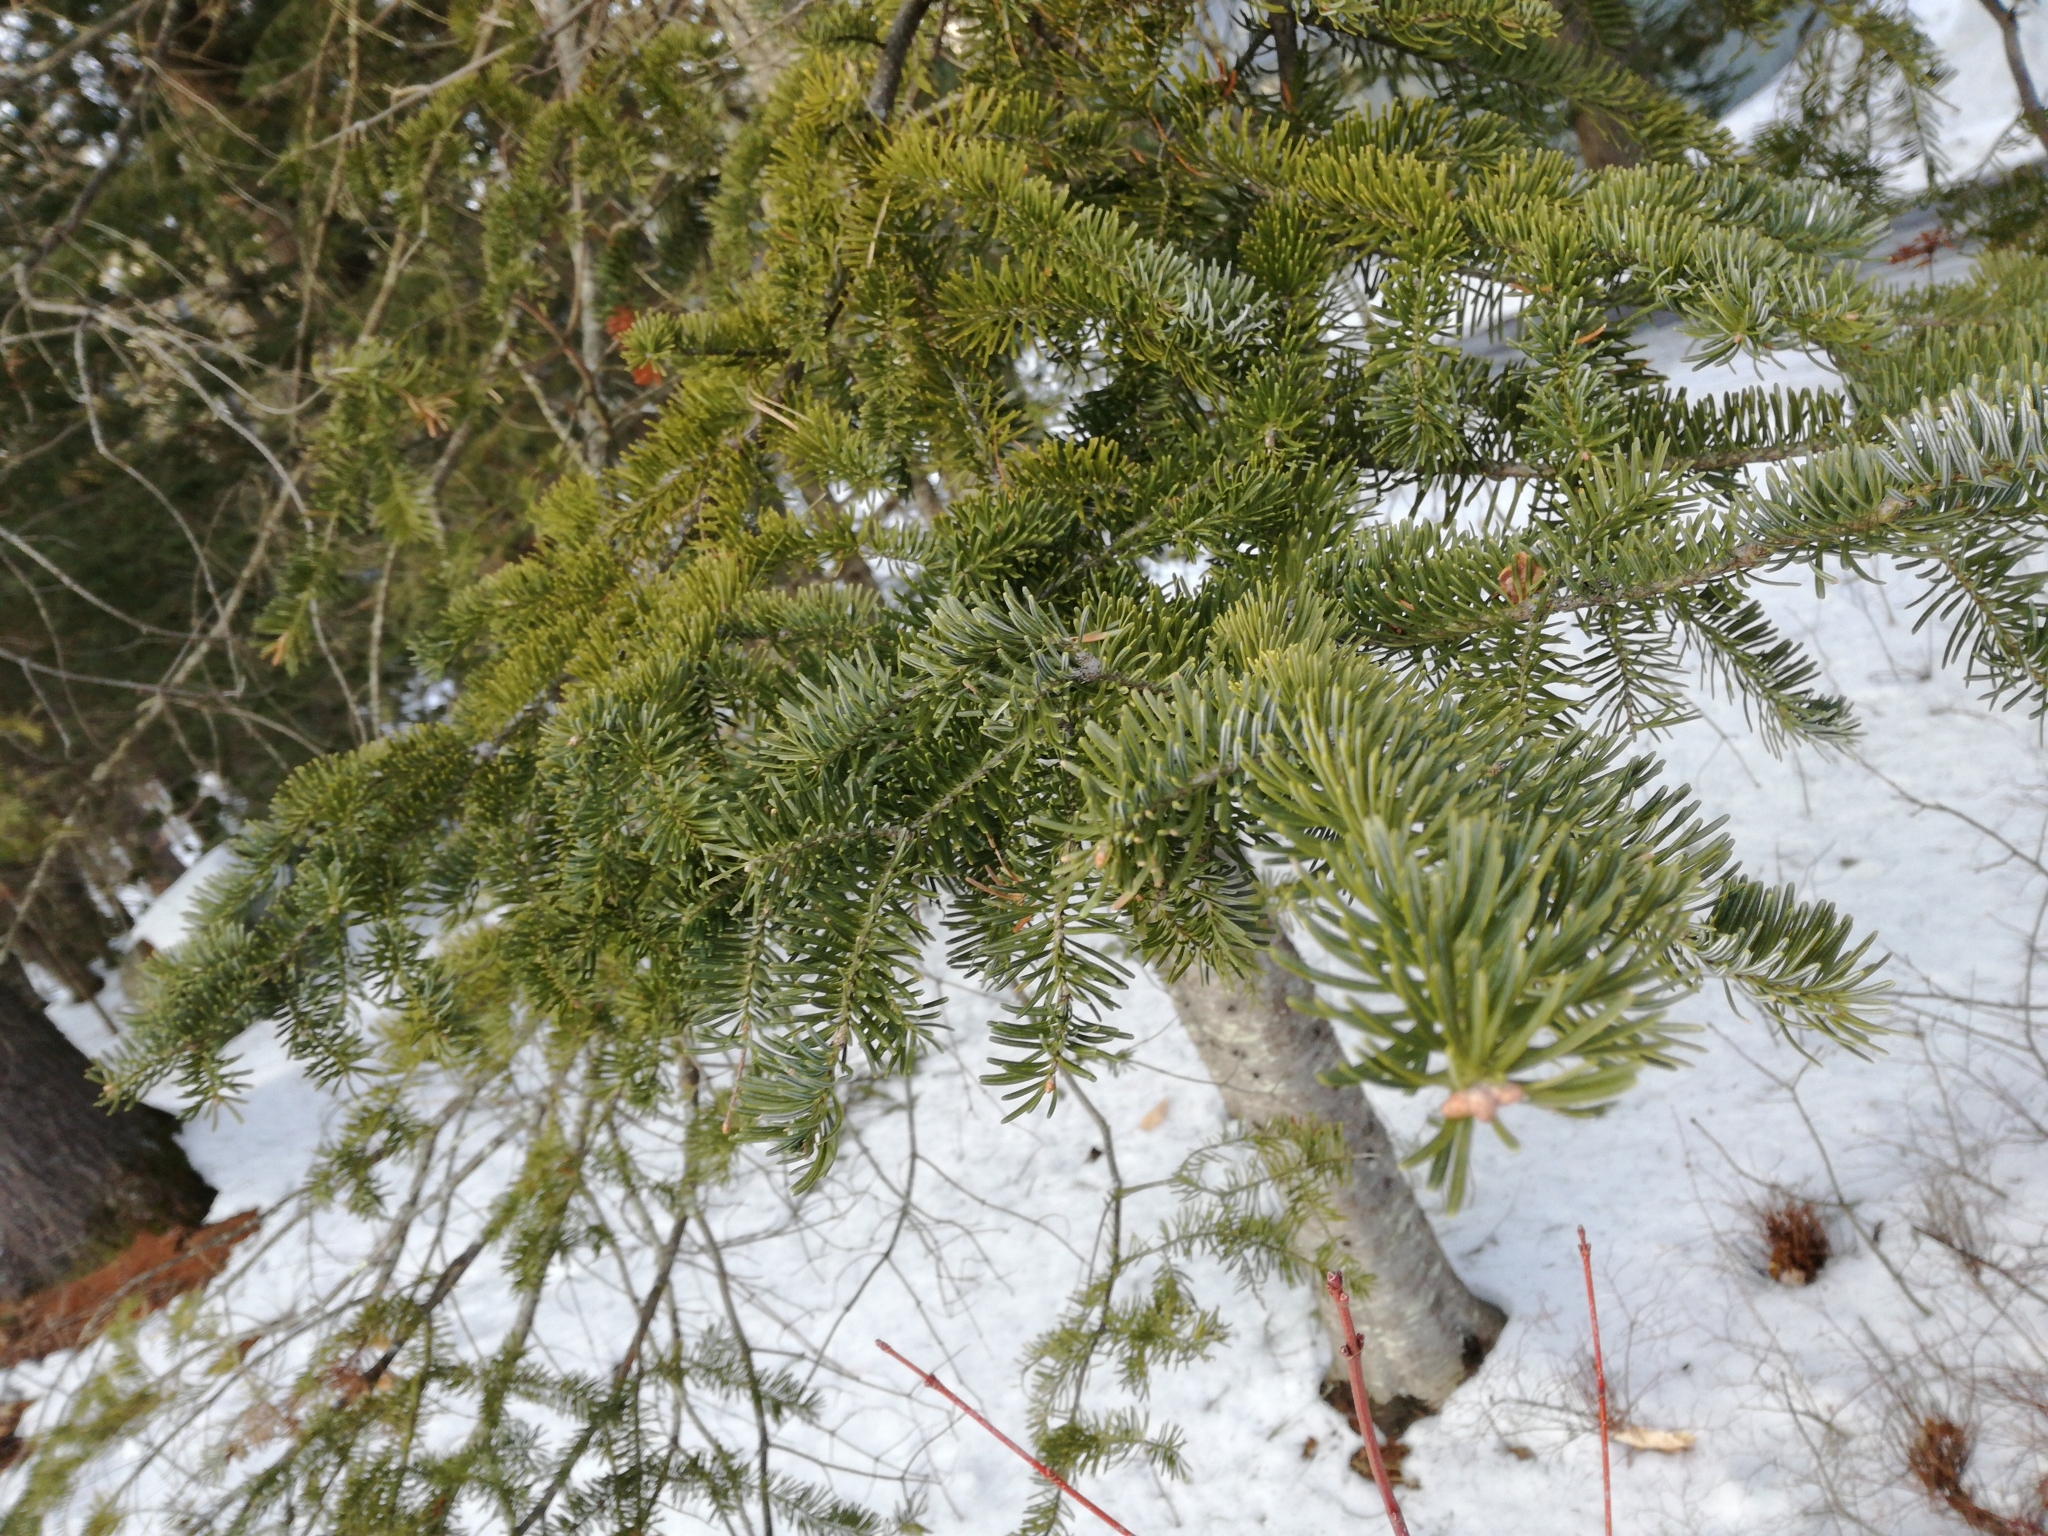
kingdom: Plantae
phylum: Tracheophyta
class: Pinopsida
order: Pinales
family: Pinaceae
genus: Abies
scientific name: Abies balsamea
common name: Balsam fir
